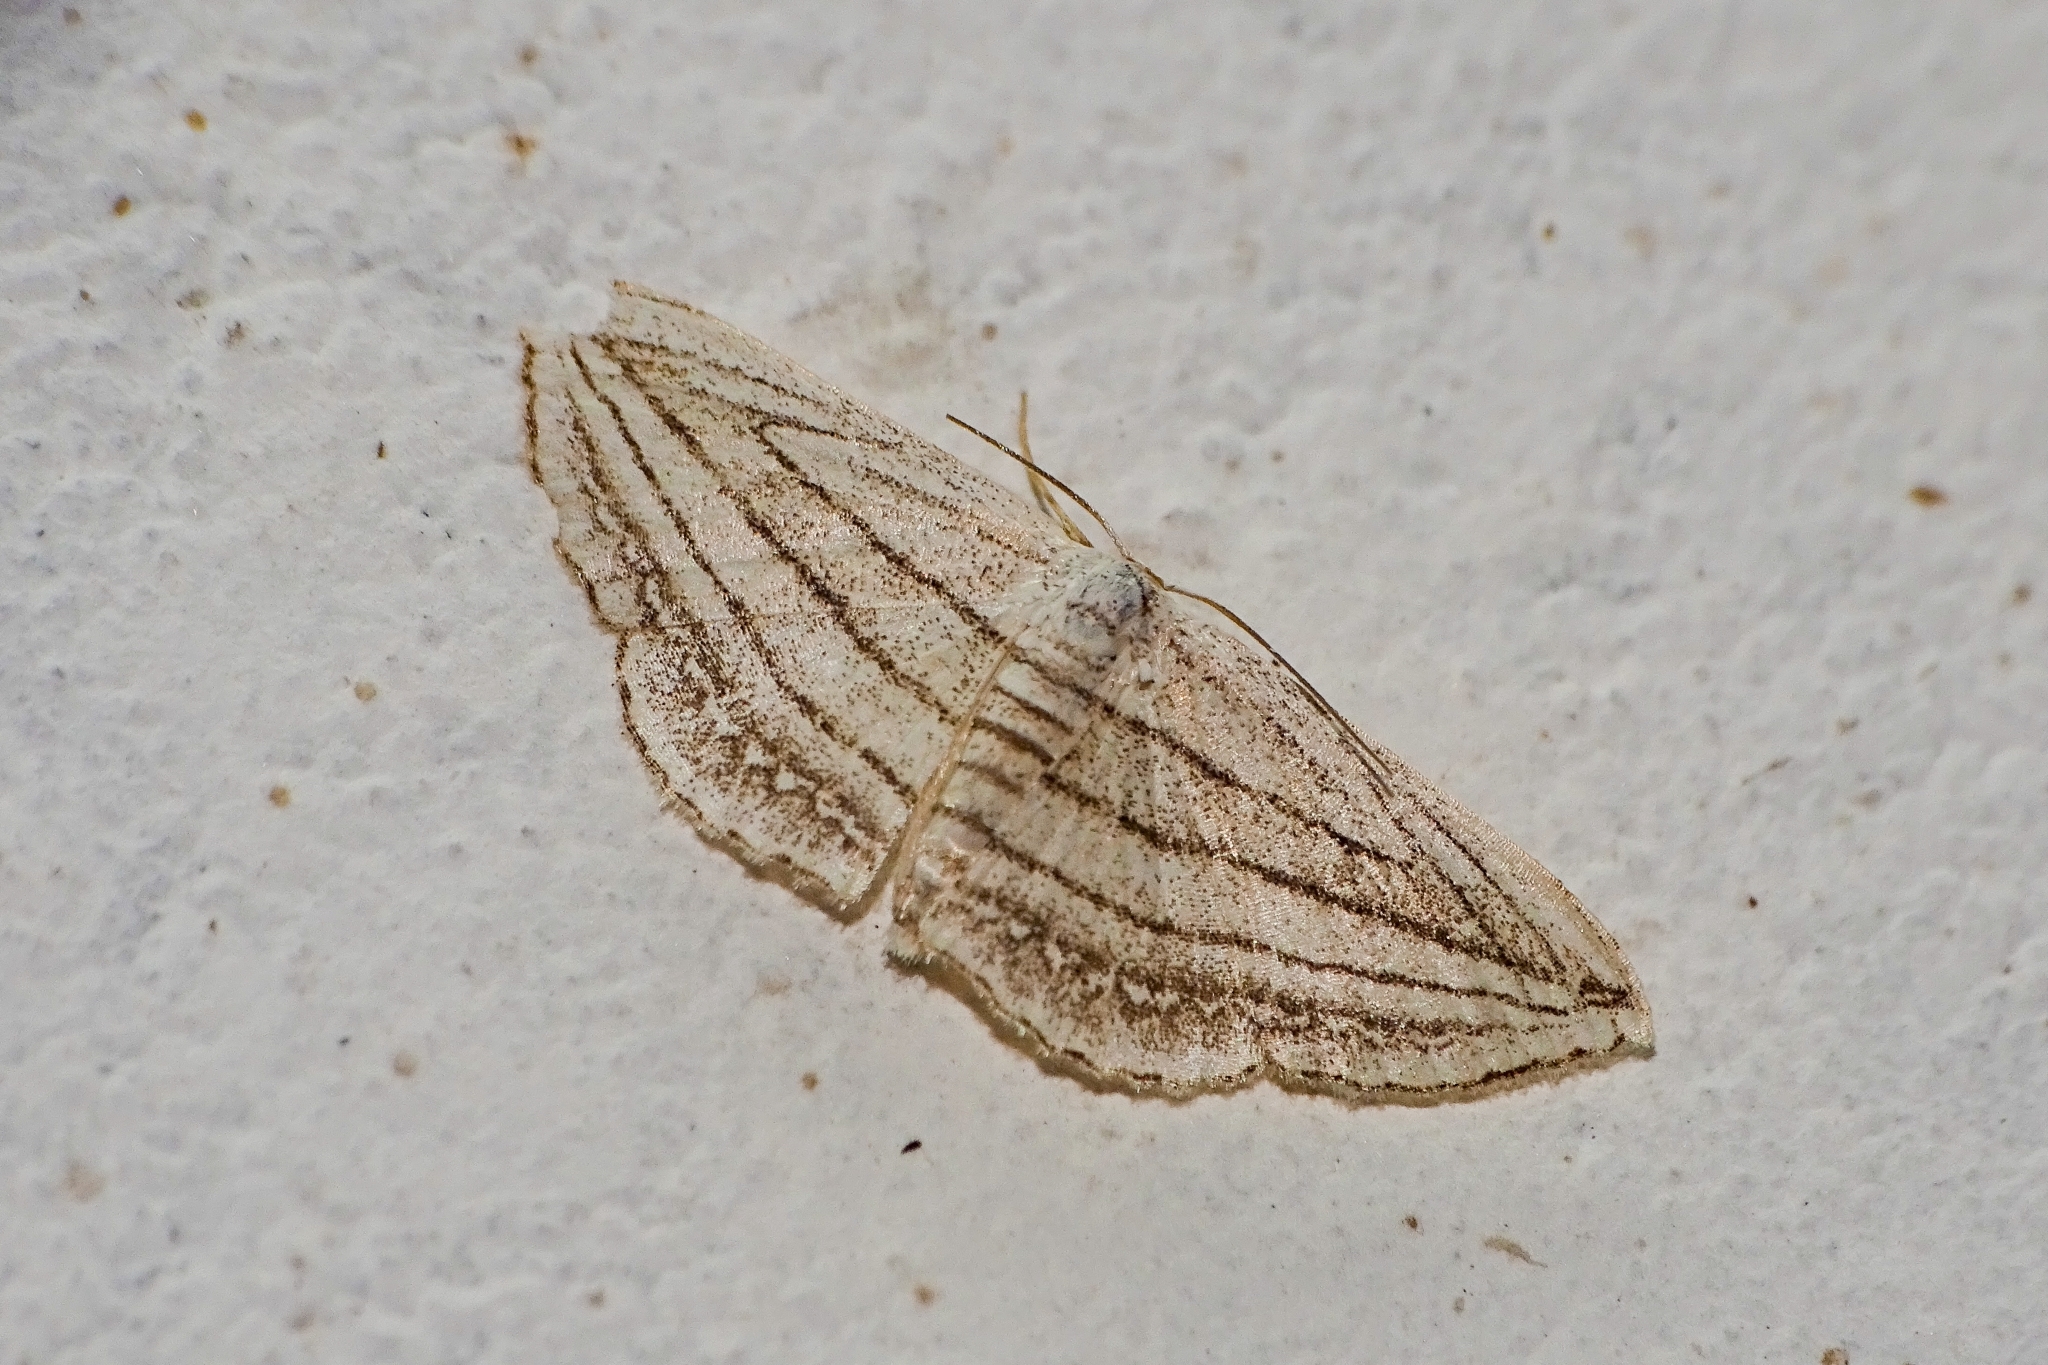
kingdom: Animalia
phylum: Arthropoda
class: Insecta
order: Lepidoptera
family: Geometridae
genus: Scopula
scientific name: Scopula opicata
